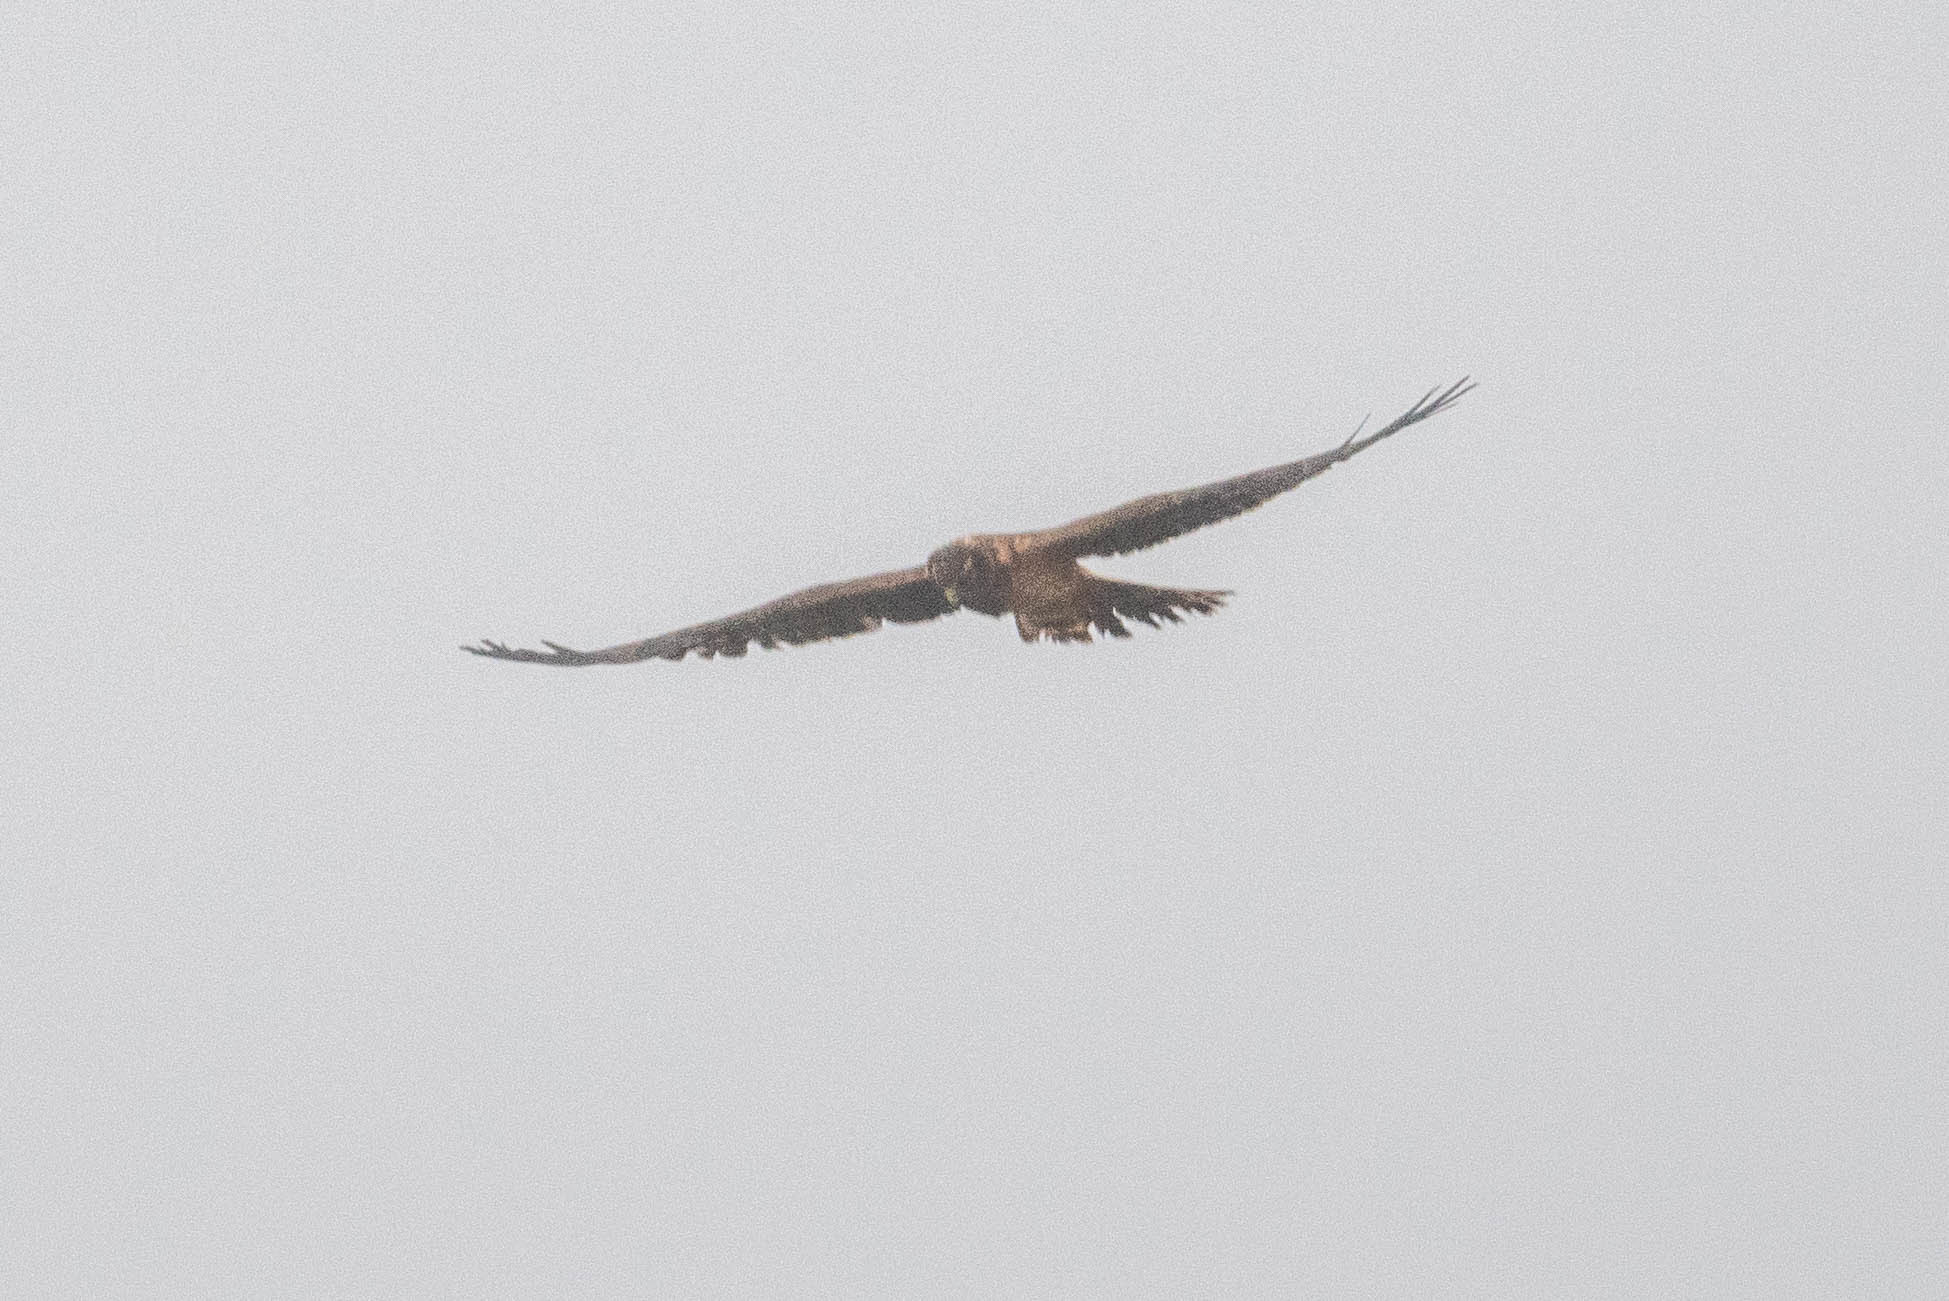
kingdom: Animalia
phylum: Chordata
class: Aves
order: Accipitriformes
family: Accipitridae
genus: Circus
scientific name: Circus cyaneus
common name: Hen harrier
